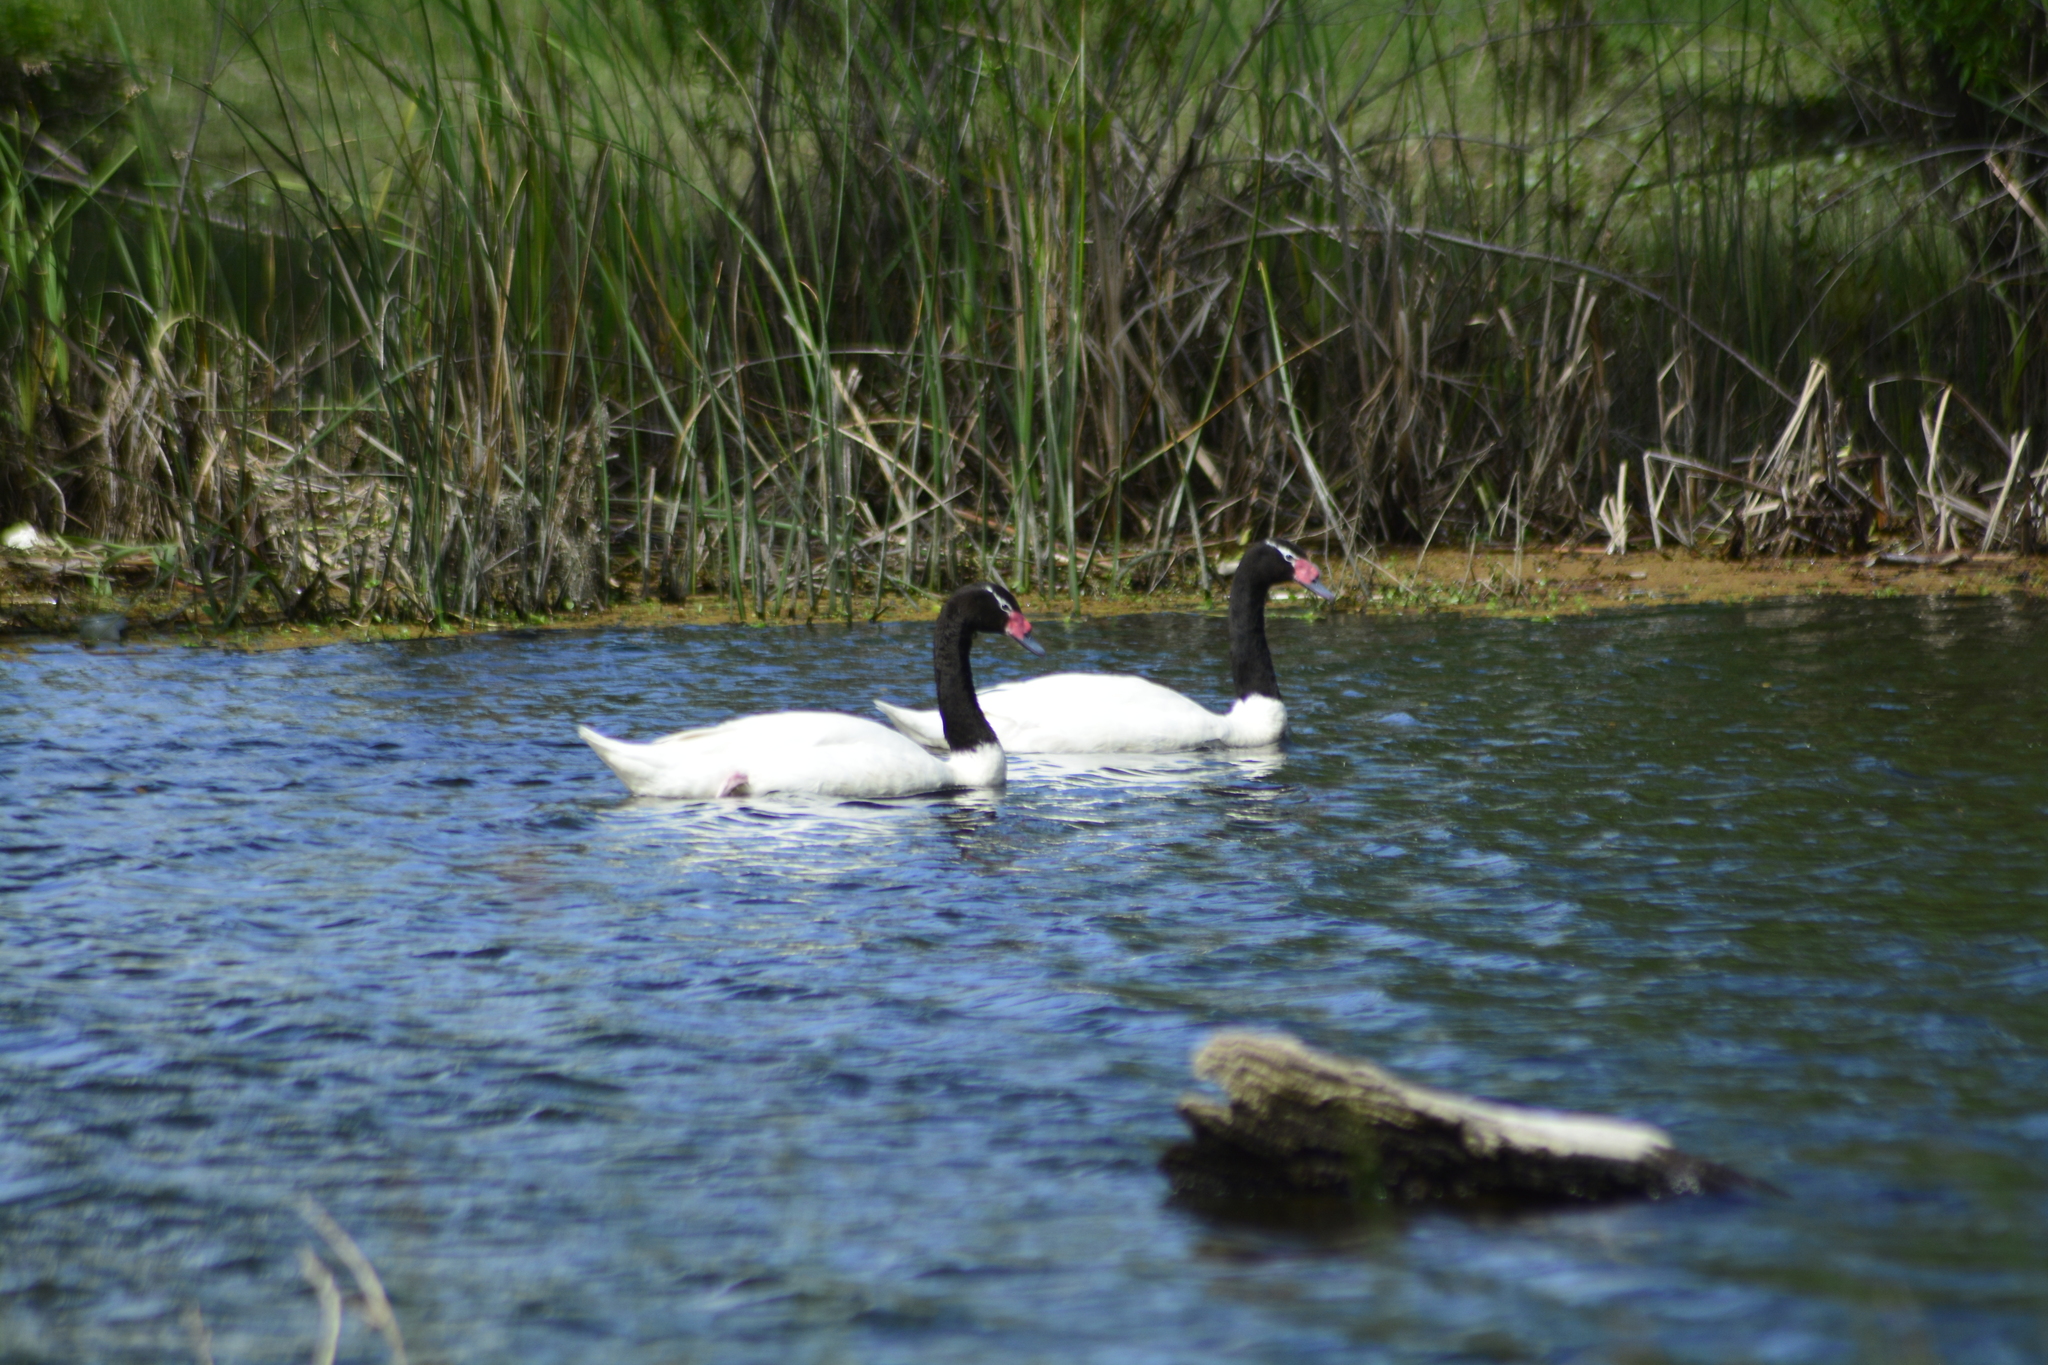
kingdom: Animalia
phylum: Chordata
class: Aves
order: Anseriformes
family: Anatidae
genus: Cygnus
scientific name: Cygnus melancoryphus
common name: Black-necked swan
